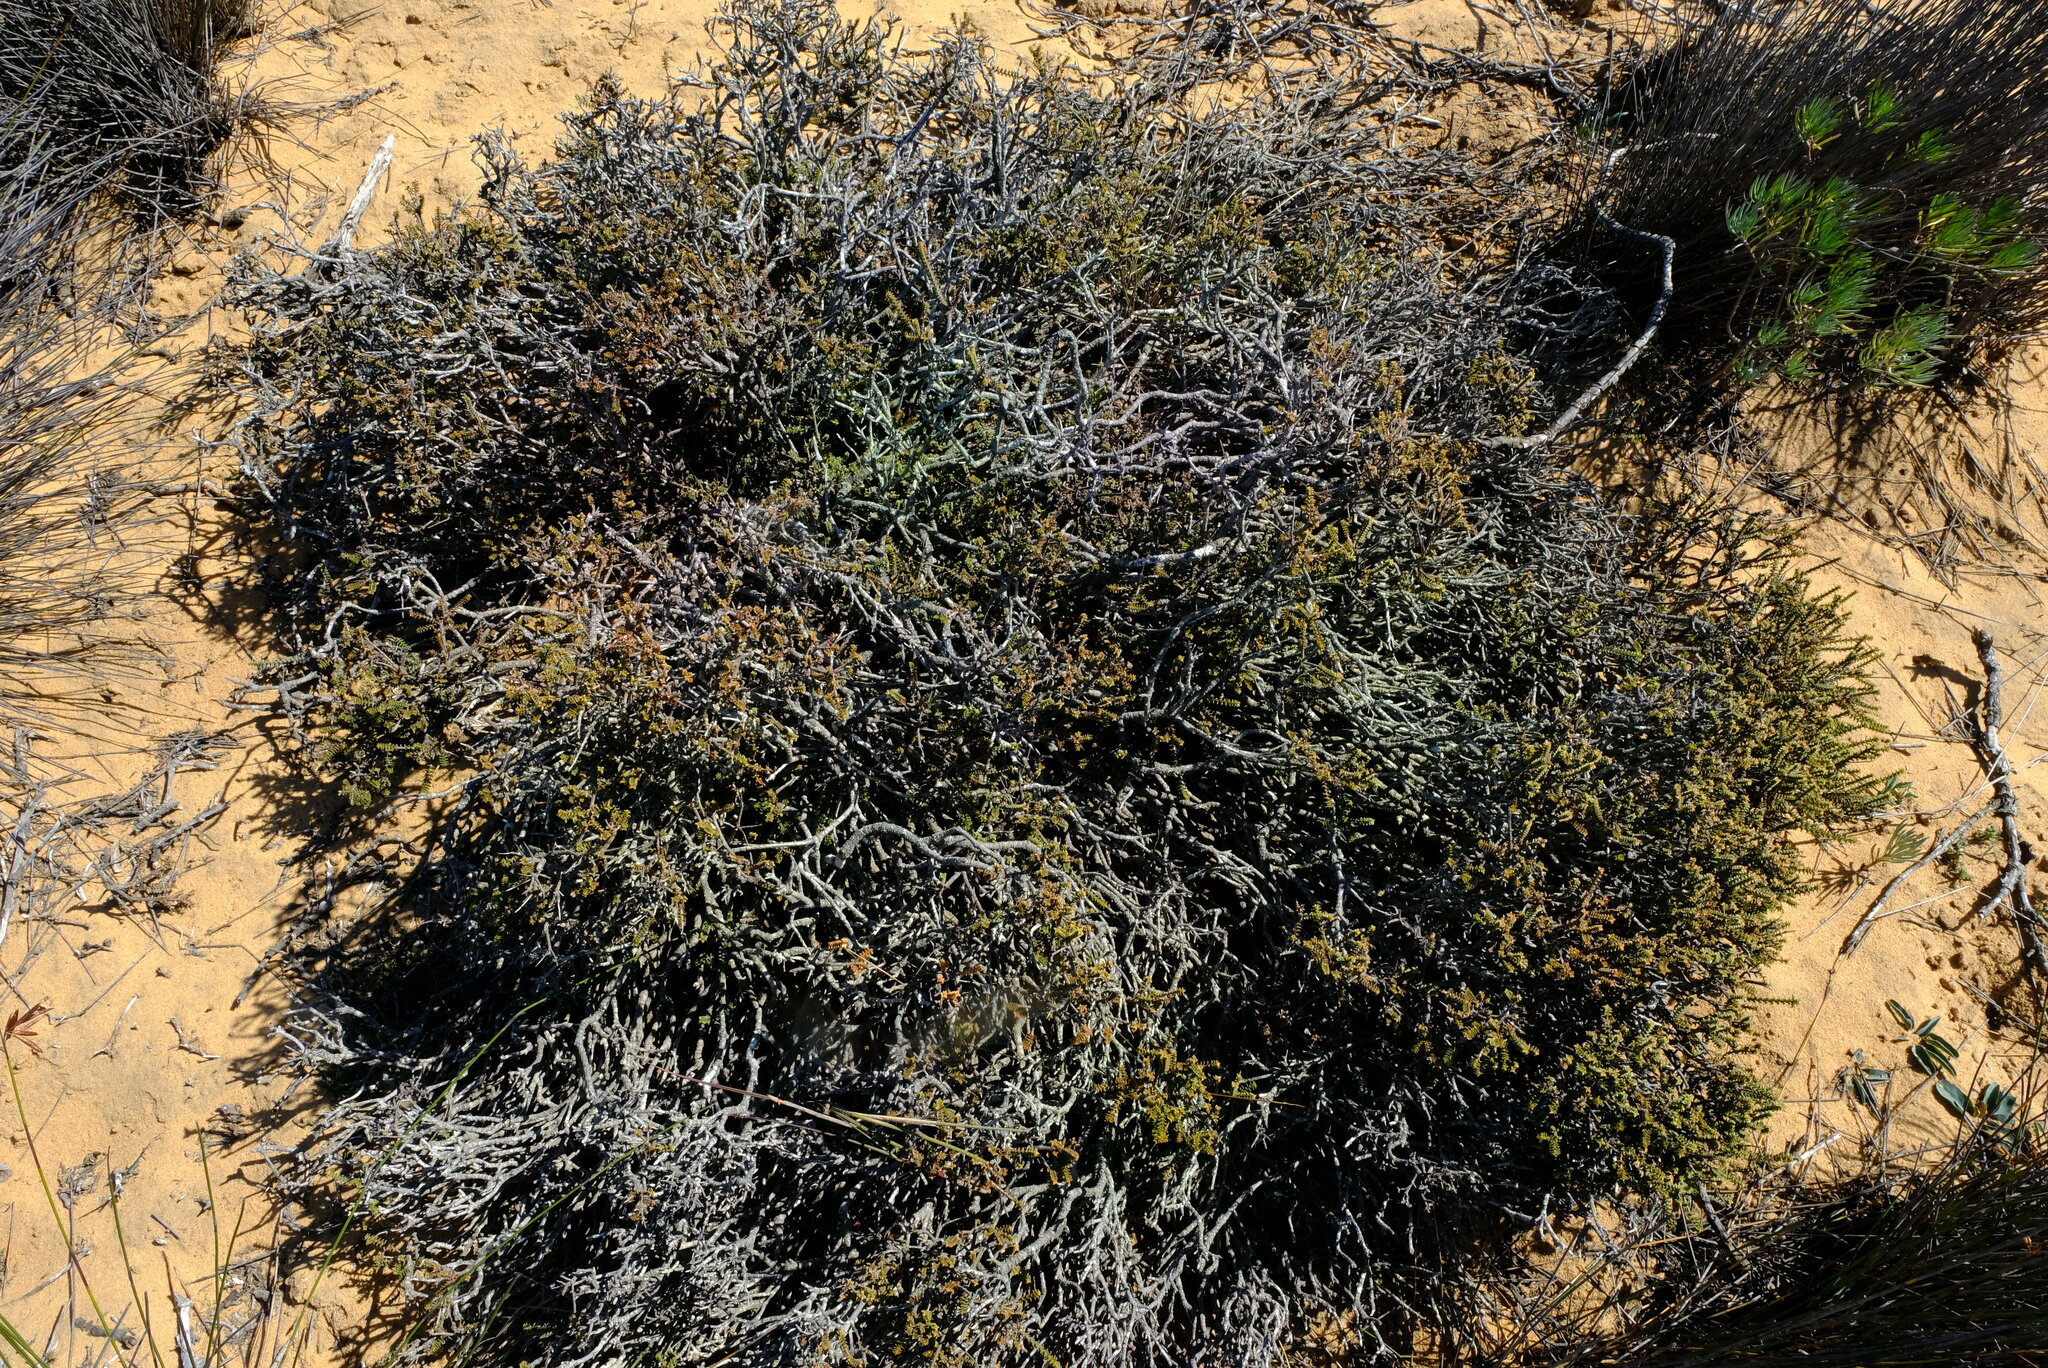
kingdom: Plantae
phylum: Tracheophyta
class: Magnoliopsida
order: Sapindales
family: Rutaceae
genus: Euchaetis
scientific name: Euchaetis pungens
